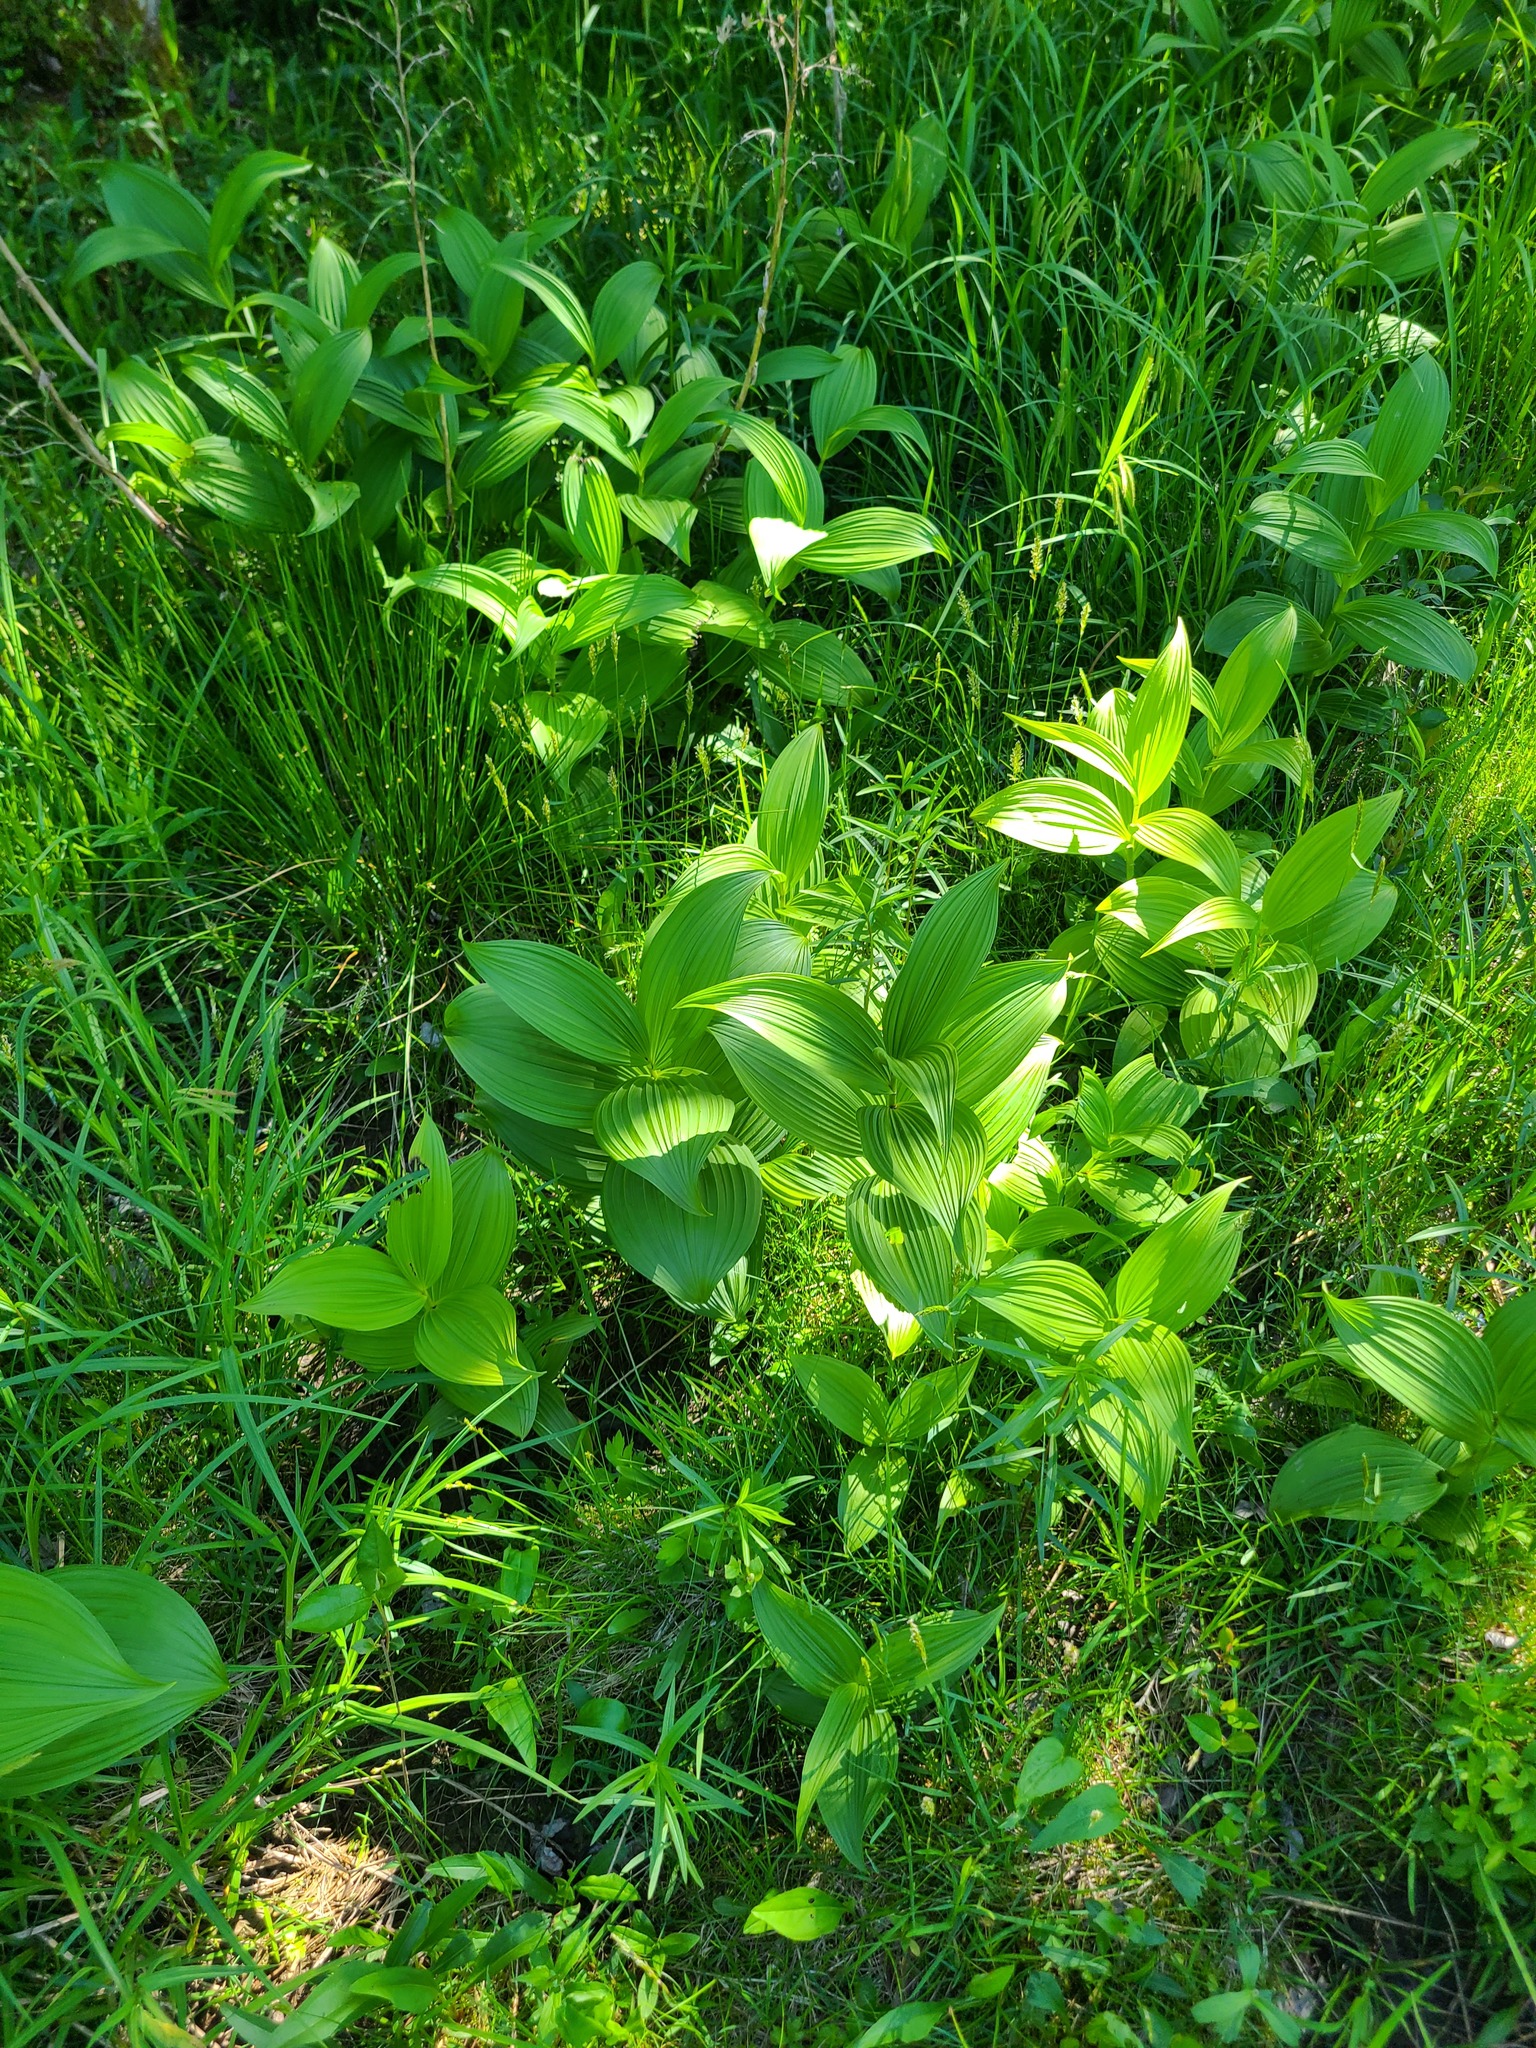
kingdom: Plantae
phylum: Tracheophyta
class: Liliopsida
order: Liliales
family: Melanthiaceae
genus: Veratrum
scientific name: Veratrum viride
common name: American false hellebore
